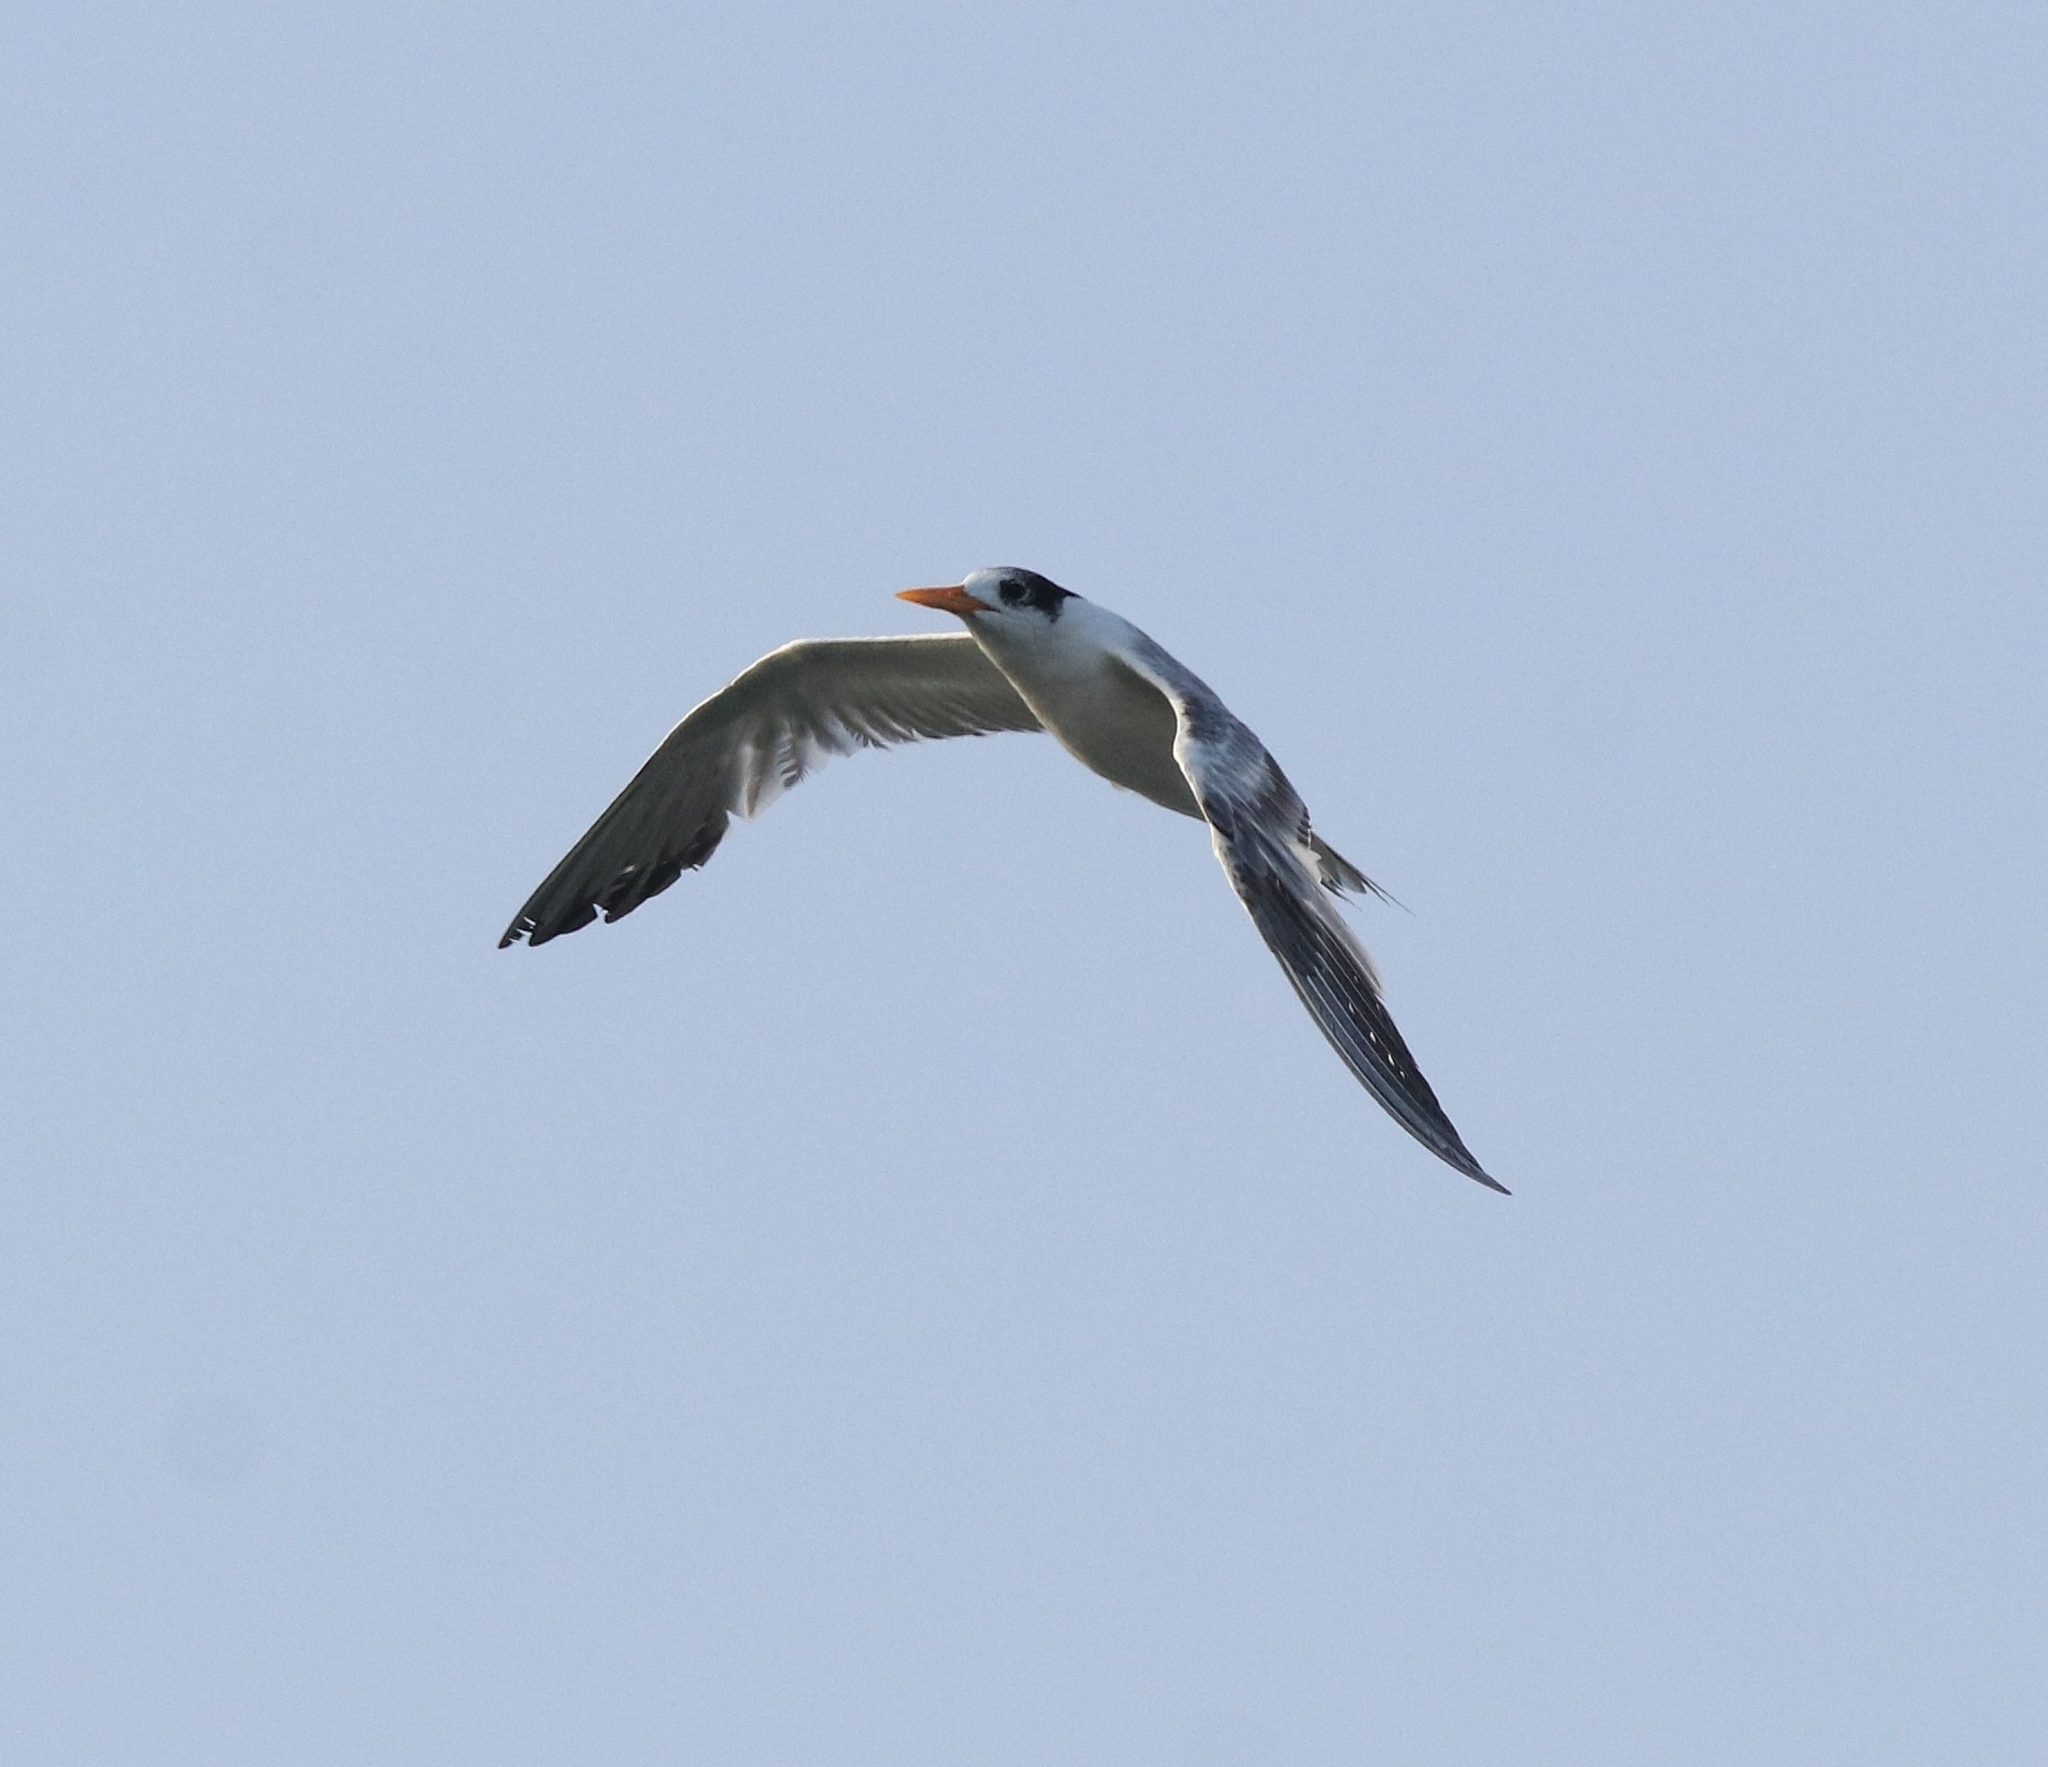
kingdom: Animalia
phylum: Chordata
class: Aves
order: Charadriiformes
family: Laridae
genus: Thalasseus
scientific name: Thalasseus bengalensis
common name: Lesser crested tern
